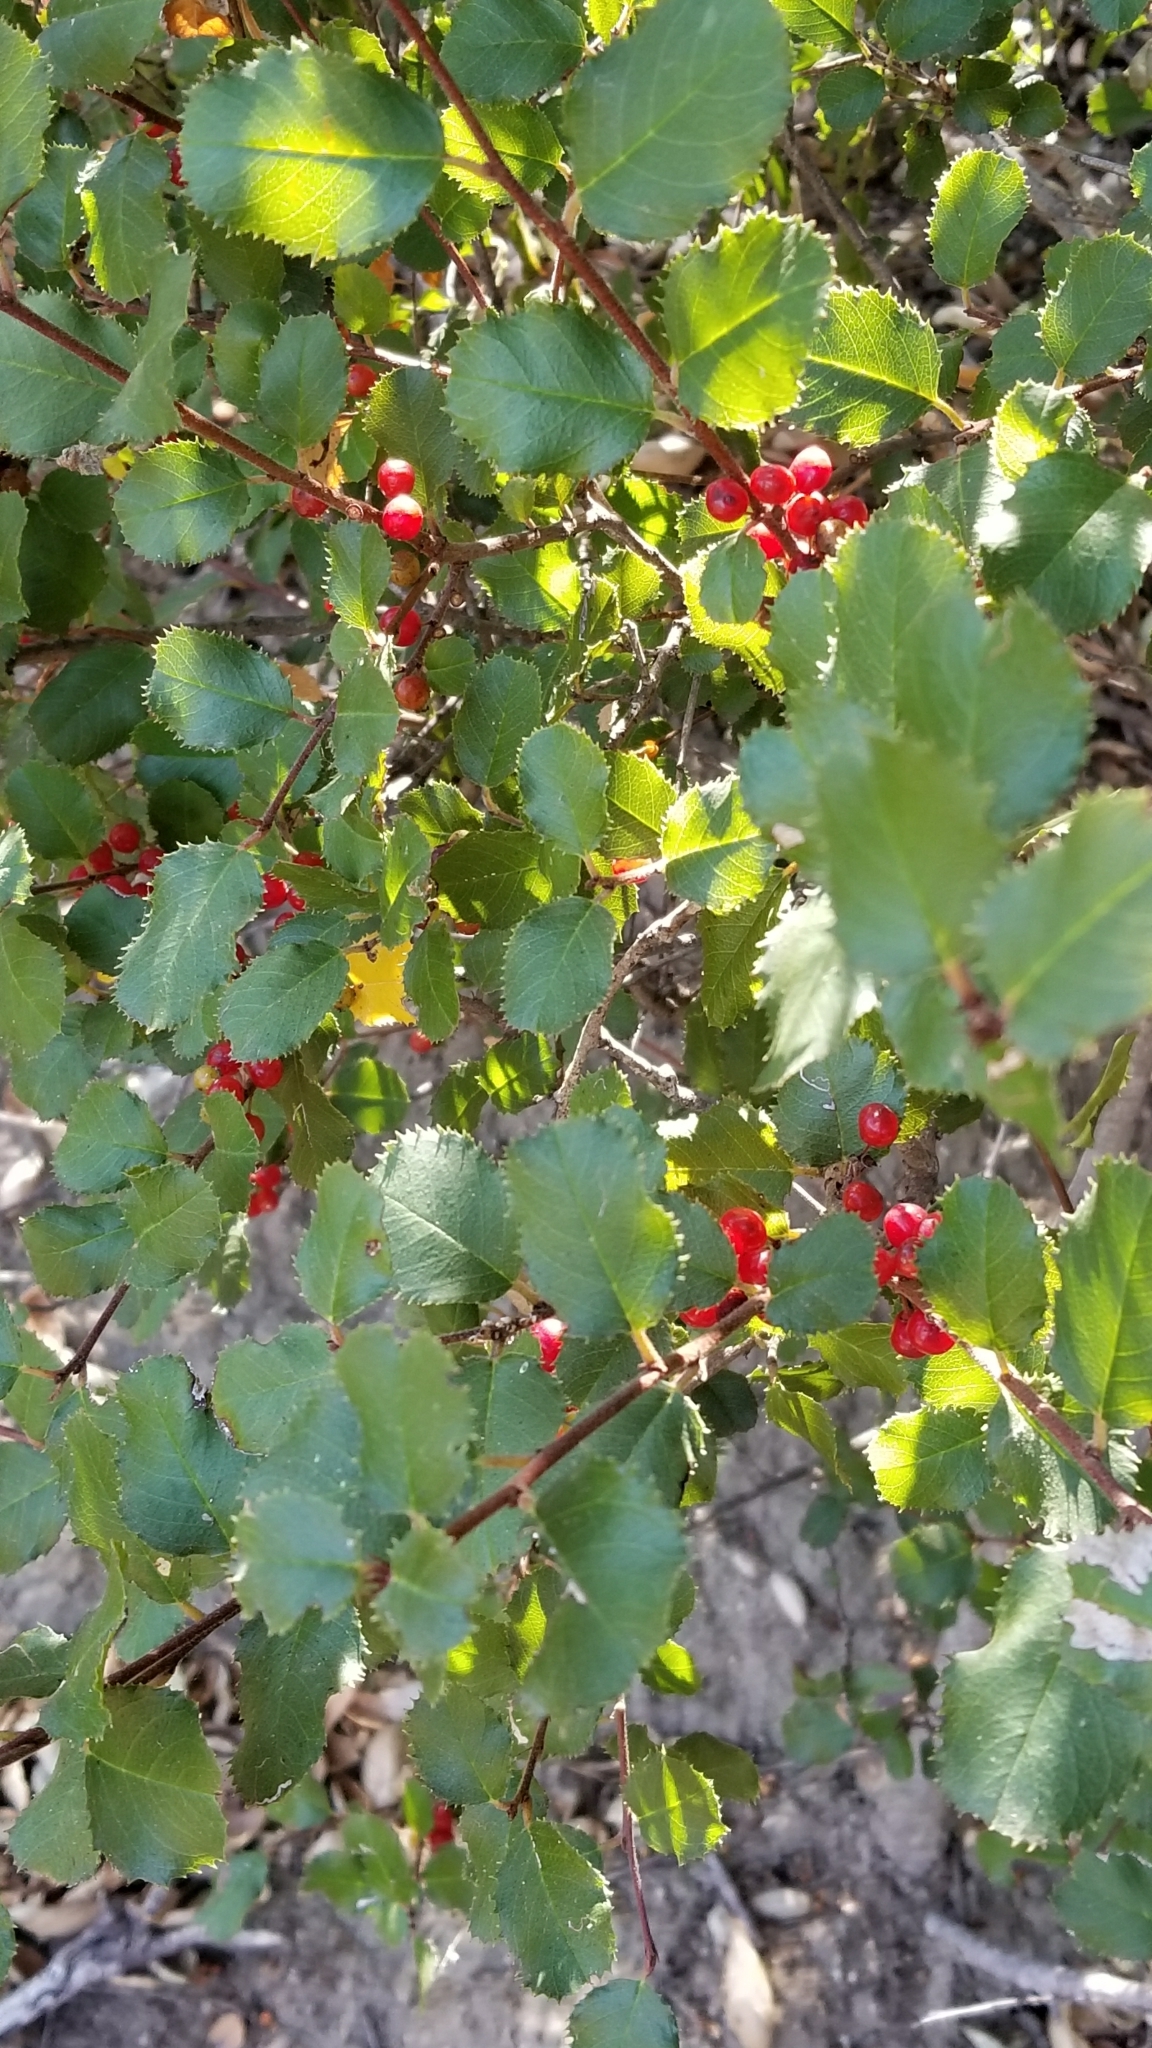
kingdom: Plantae
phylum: Tracheophyta
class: Magnoliopsida
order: Rosales
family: Rhamnaceae
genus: Endotropis
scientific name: Endotropis crocea
